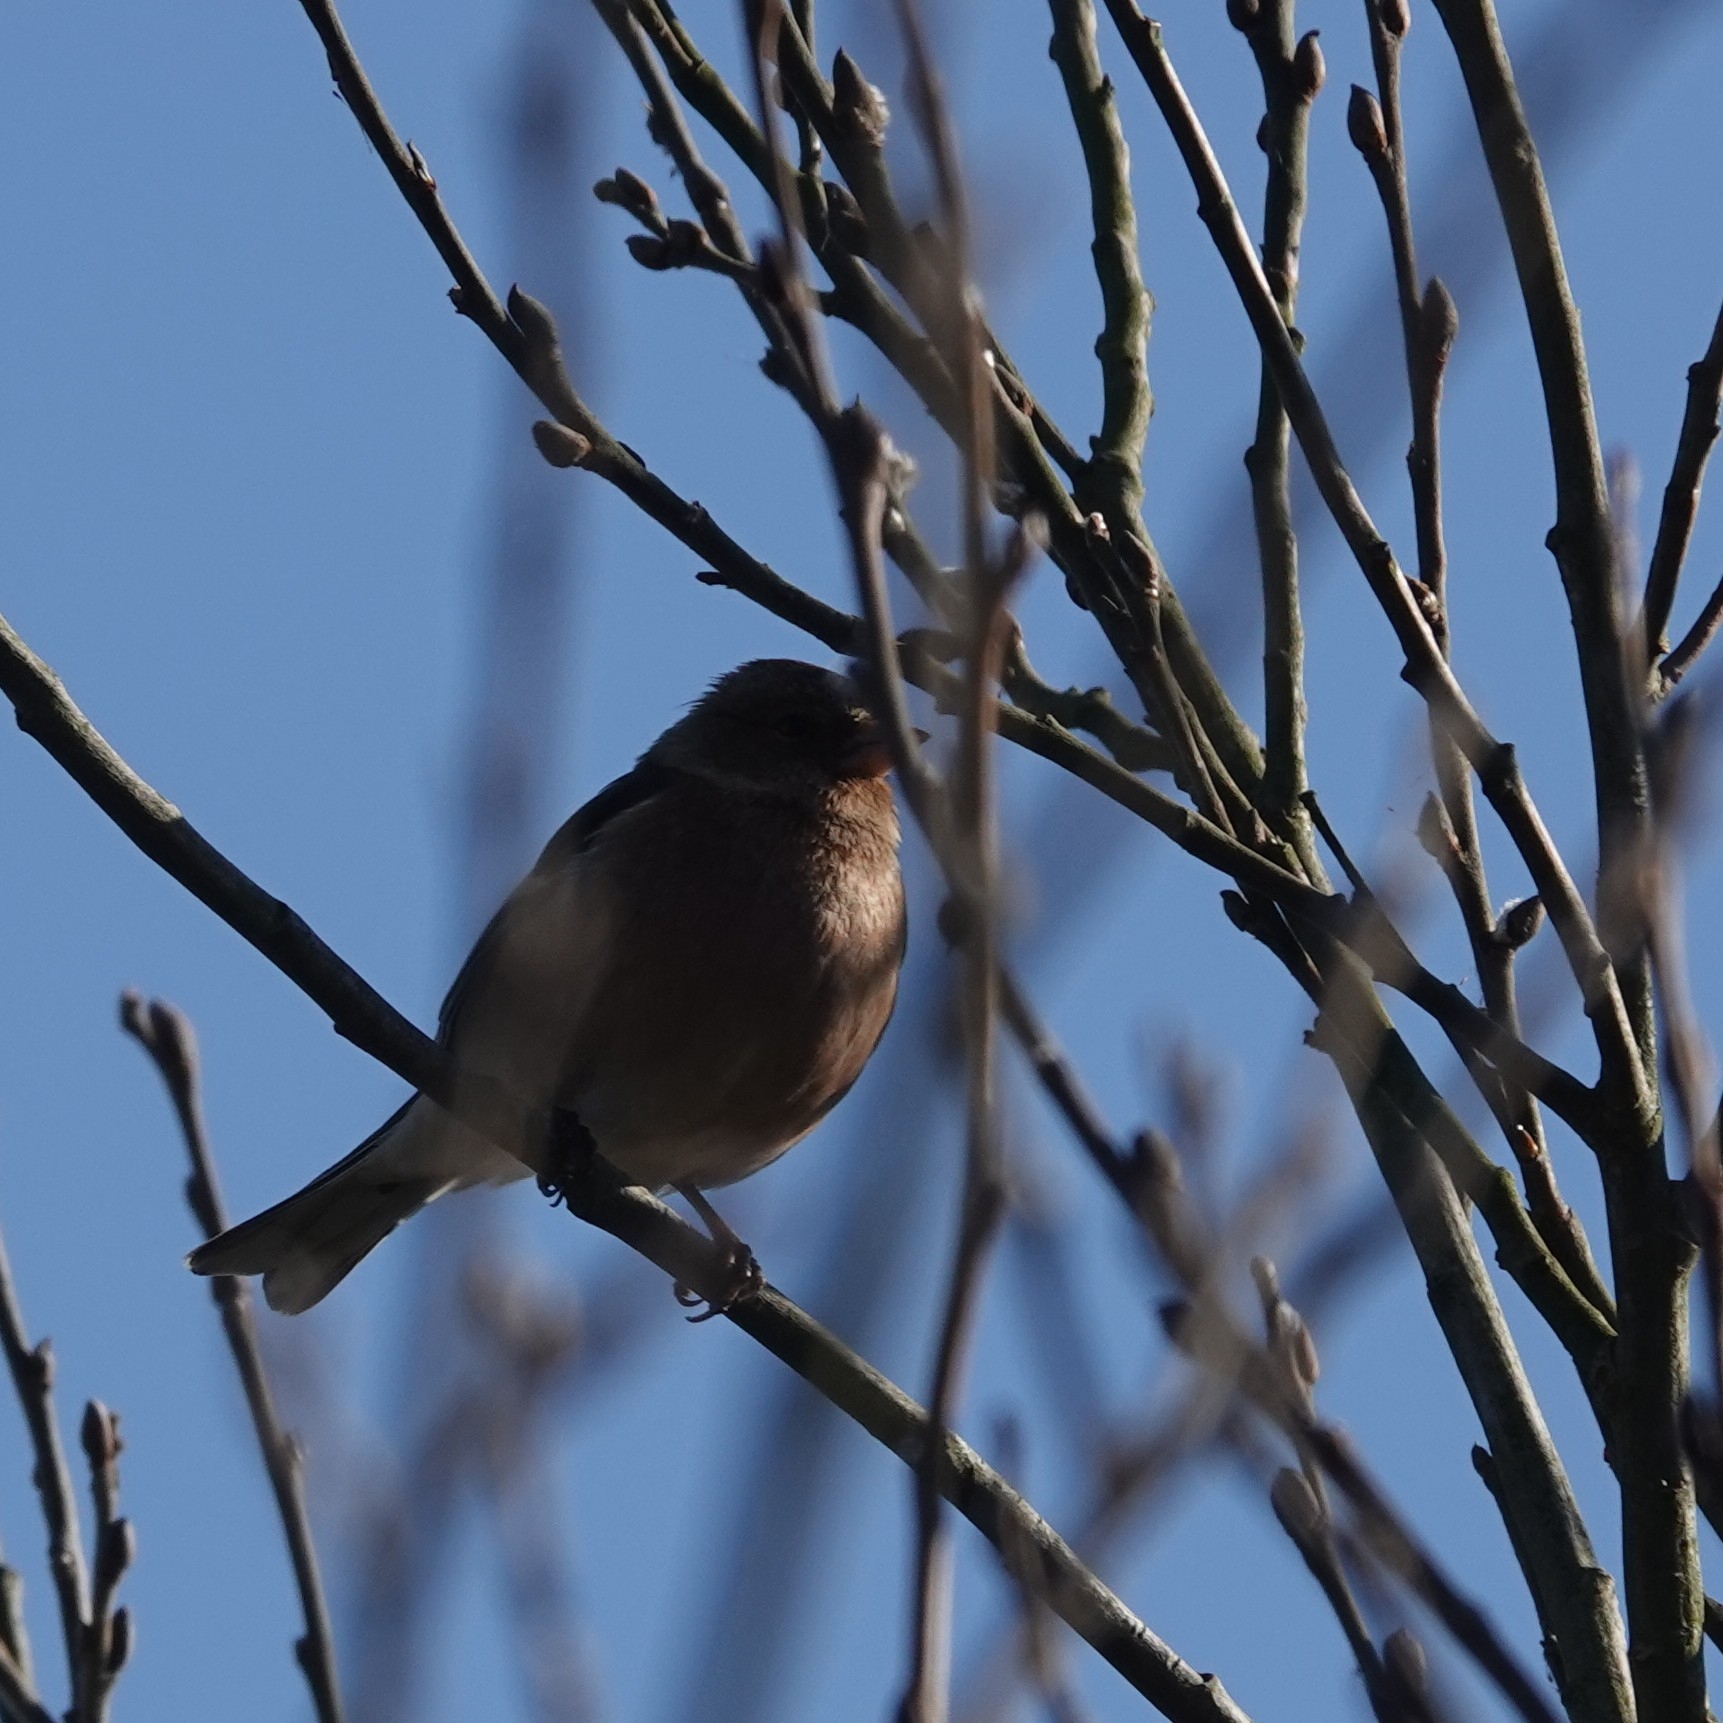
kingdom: Animalia
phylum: Chordata
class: Aves
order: Passeriformes
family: Fringillidae
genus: Fringilla
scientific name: Fringilla coelebs
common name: Common chaffinch
